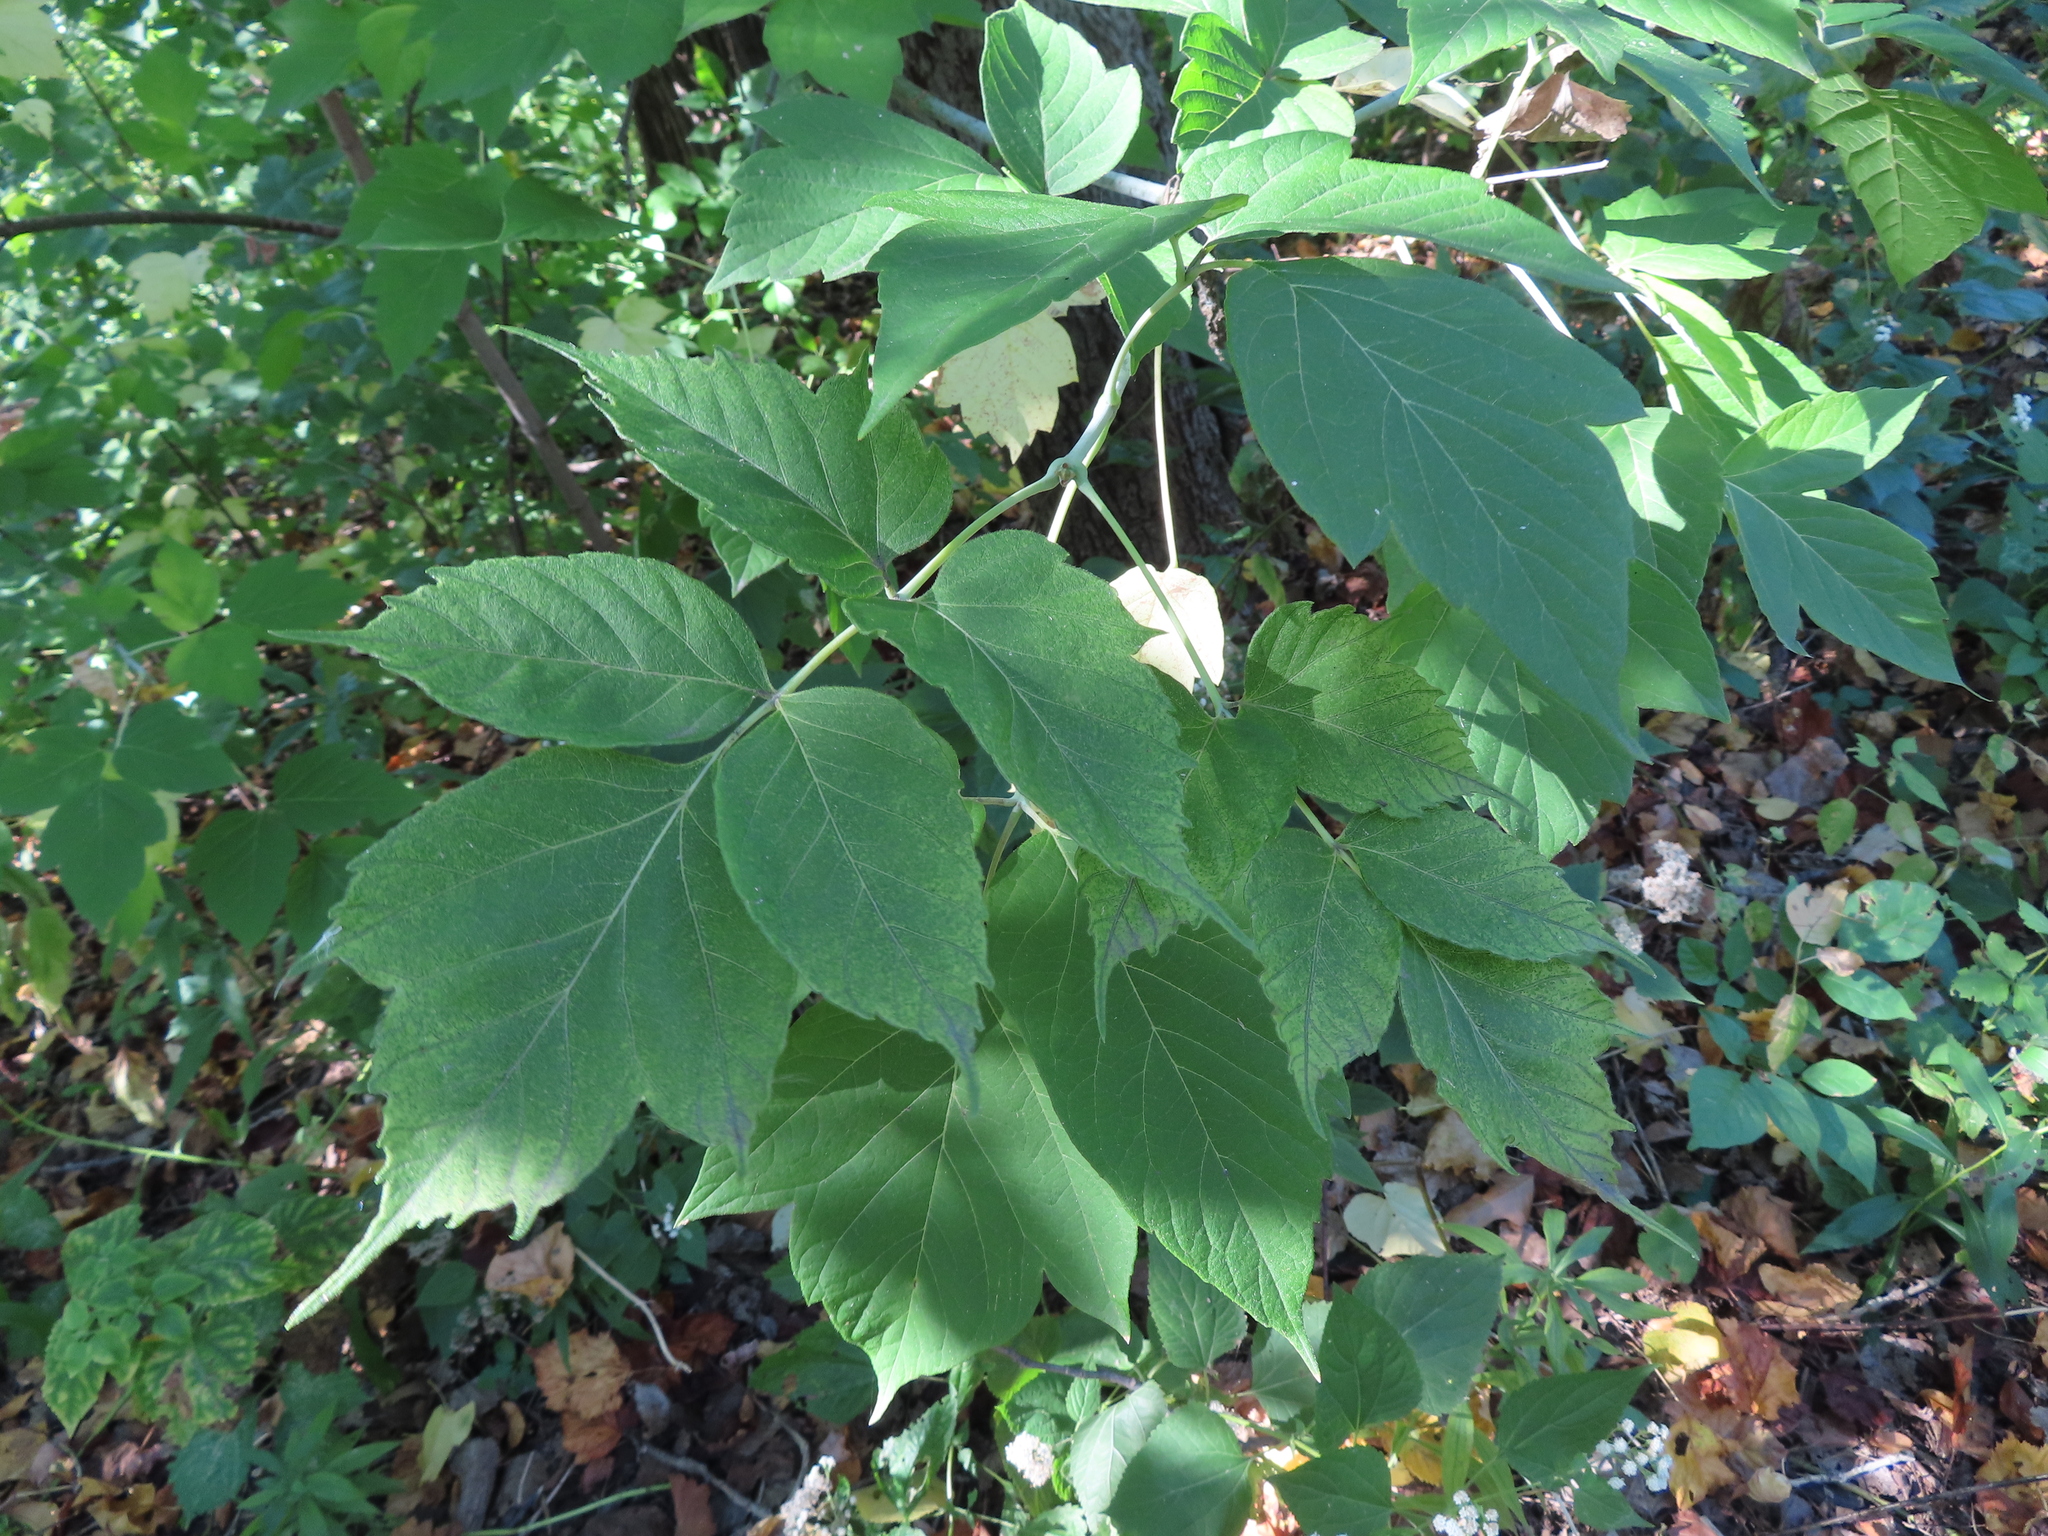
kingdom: Plantae
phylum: Tracheophyta
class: Magnoliopsida
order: Sapindales
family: Sapindaceae
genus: Acer
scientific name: Acer negundo
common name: Ashleaf maple
